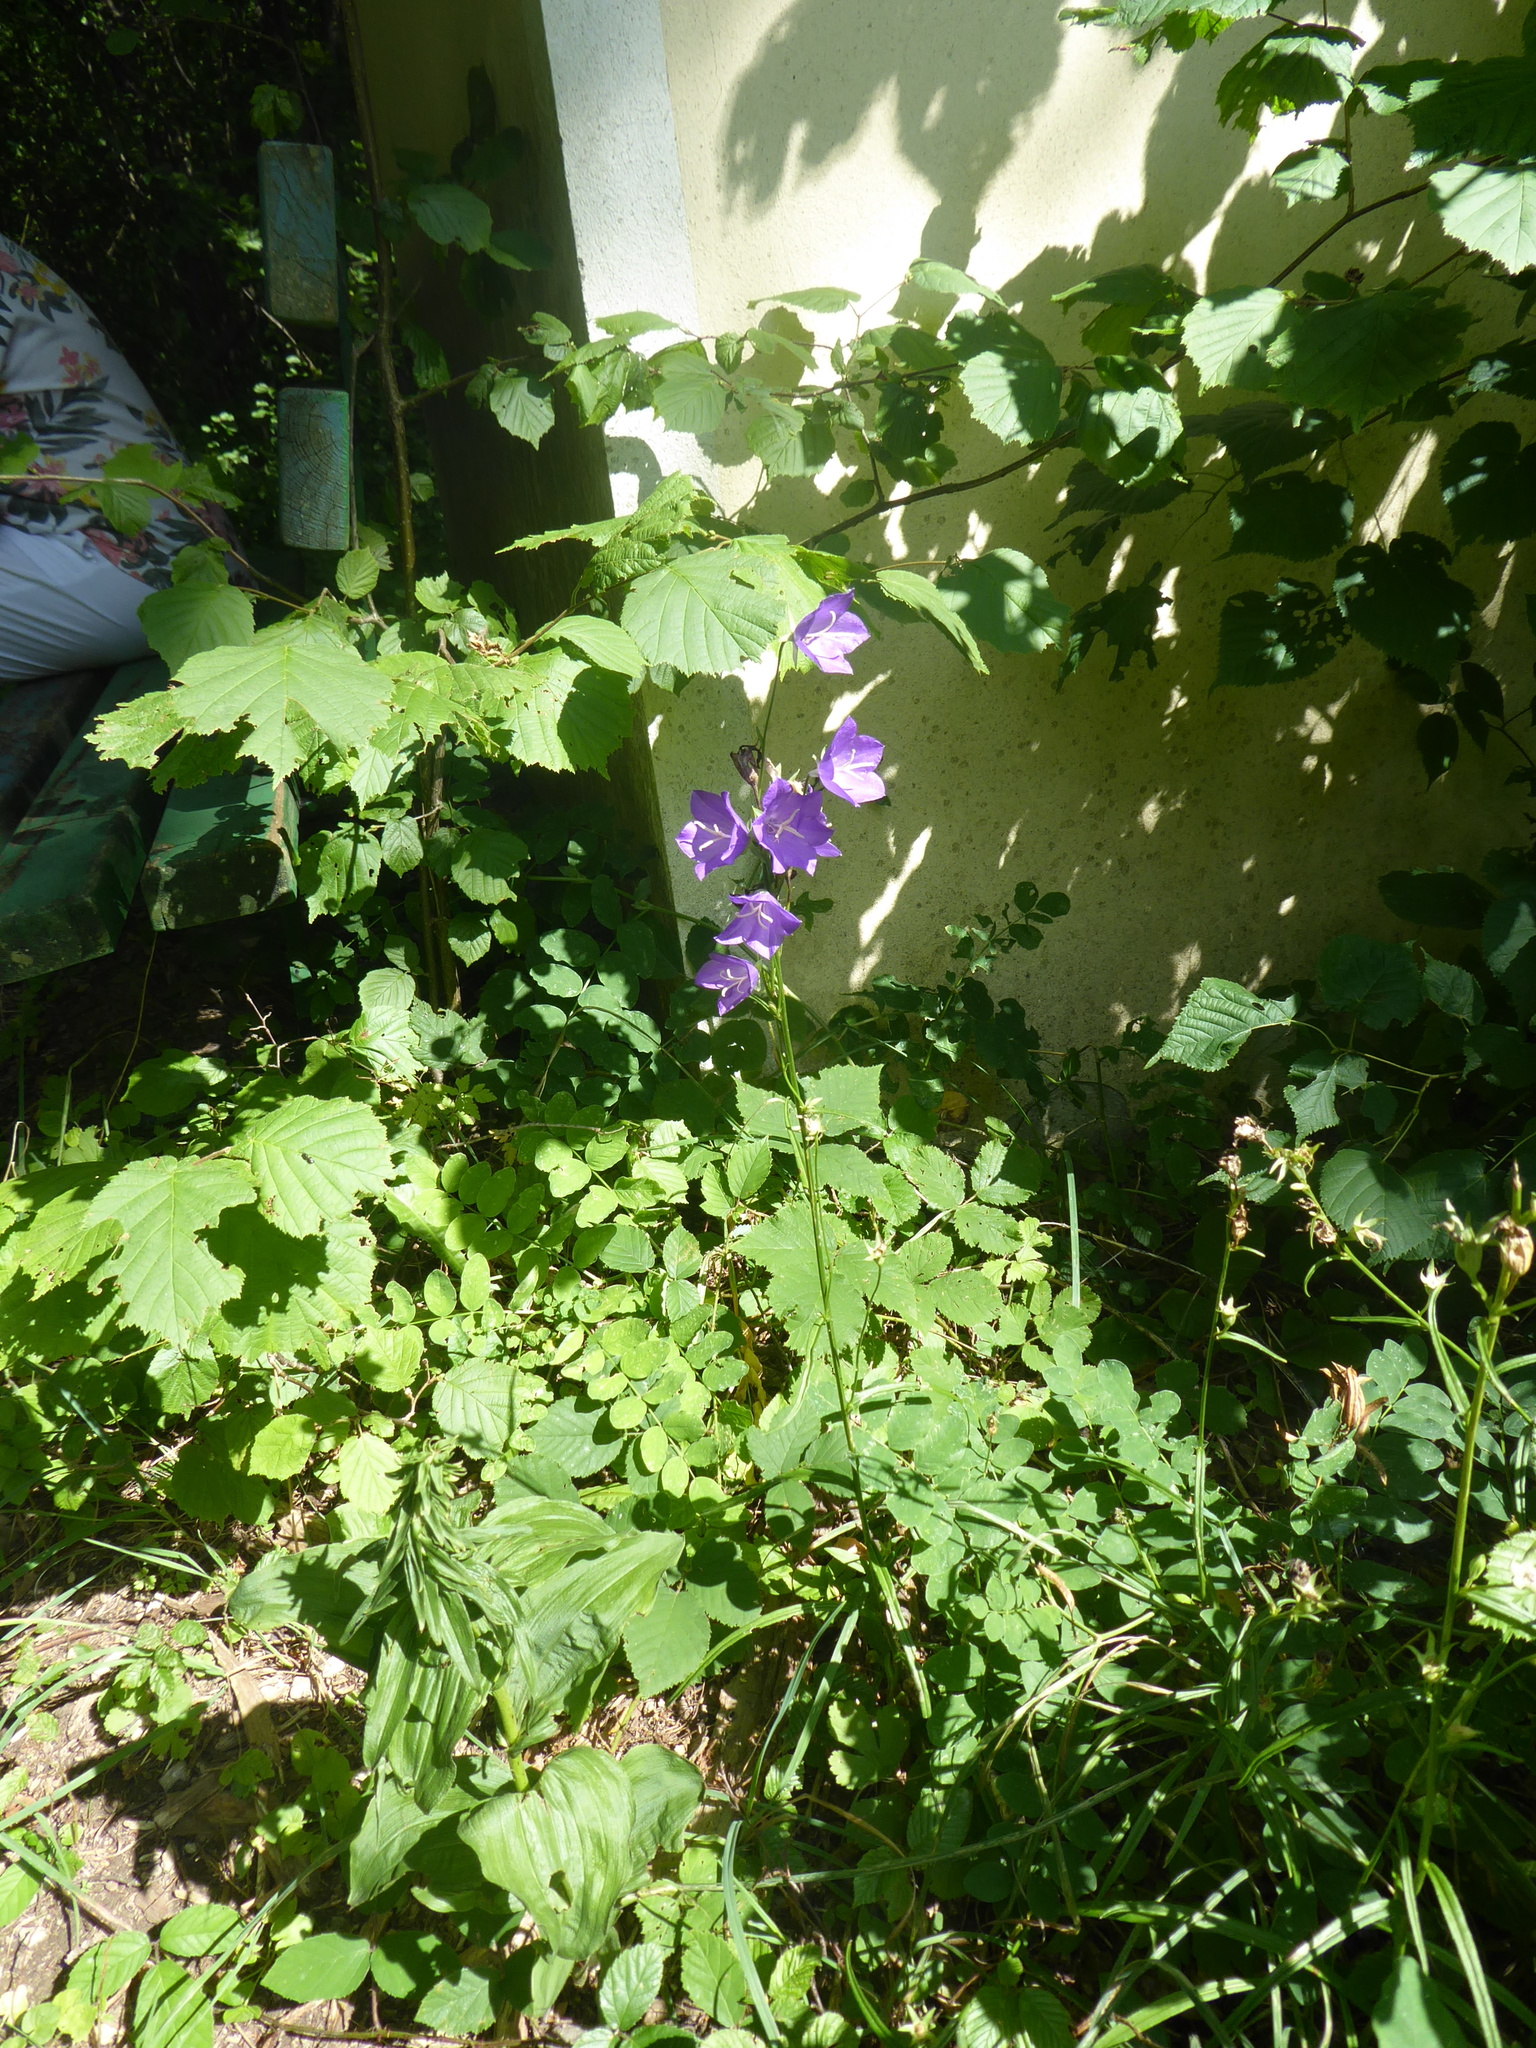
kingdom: Plantae
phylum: Tracheophyta
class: Magnoliopsida
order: Asterales
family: Campanulaceae
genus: Campanula
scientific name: Campanula persicifolia
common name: Peach-leaved bellflower
